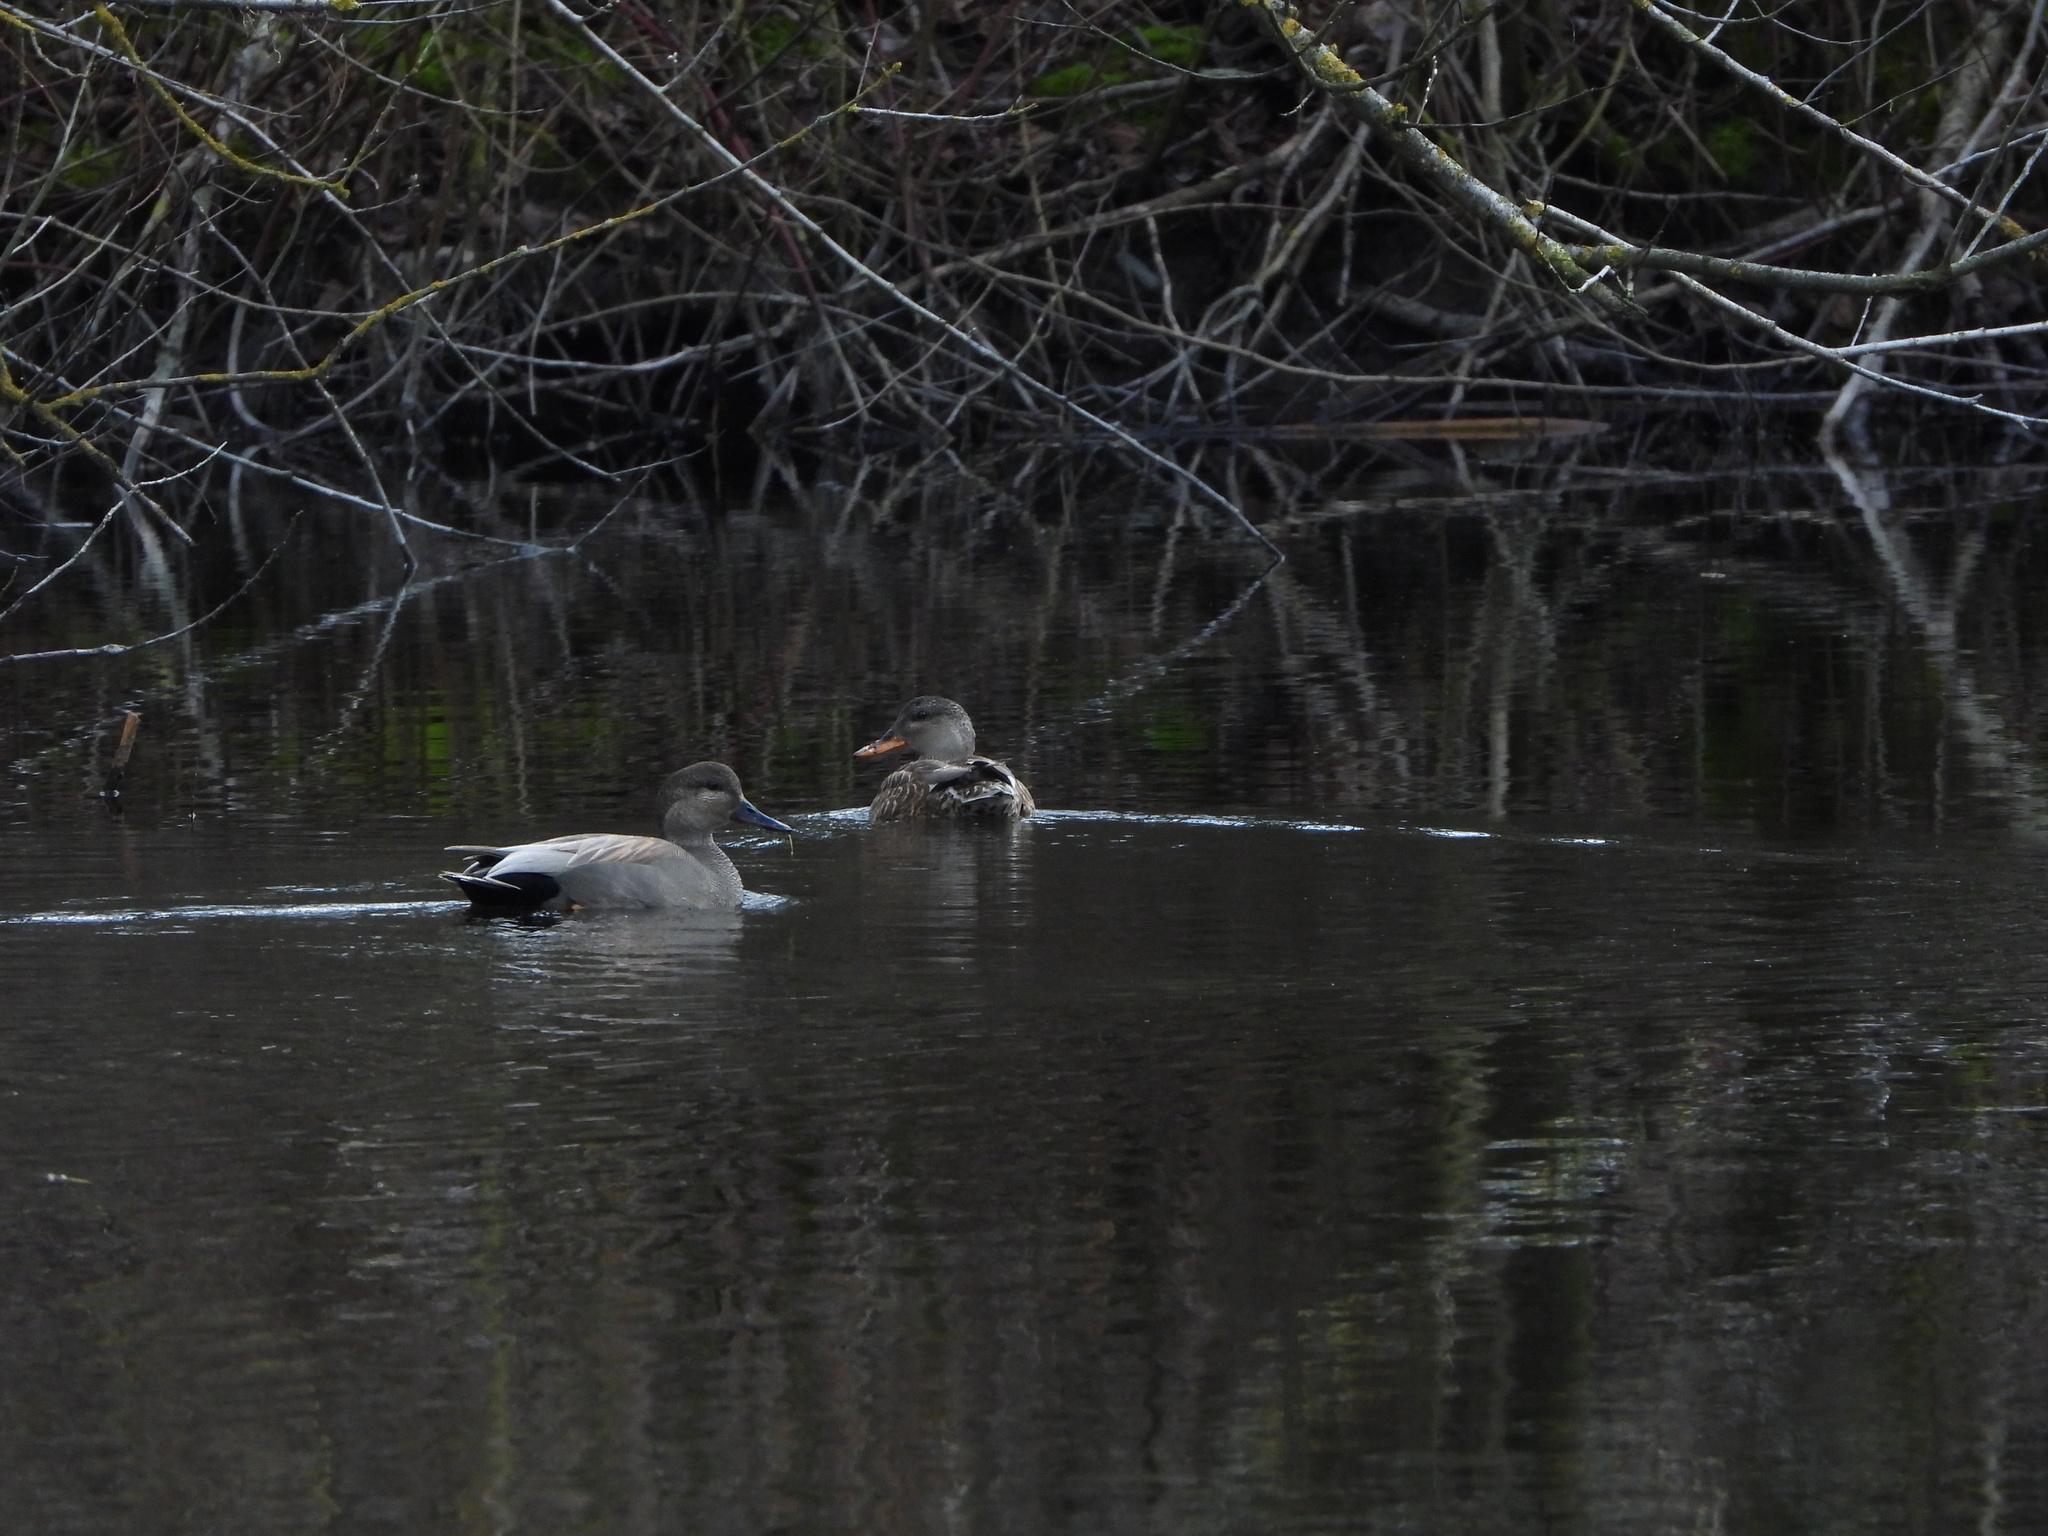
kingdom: Animalia
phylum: Chordata
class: Aves
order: Anseriformes
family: Anatidae
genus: Mareca
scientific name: Mareca strepera
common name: Gadwall
